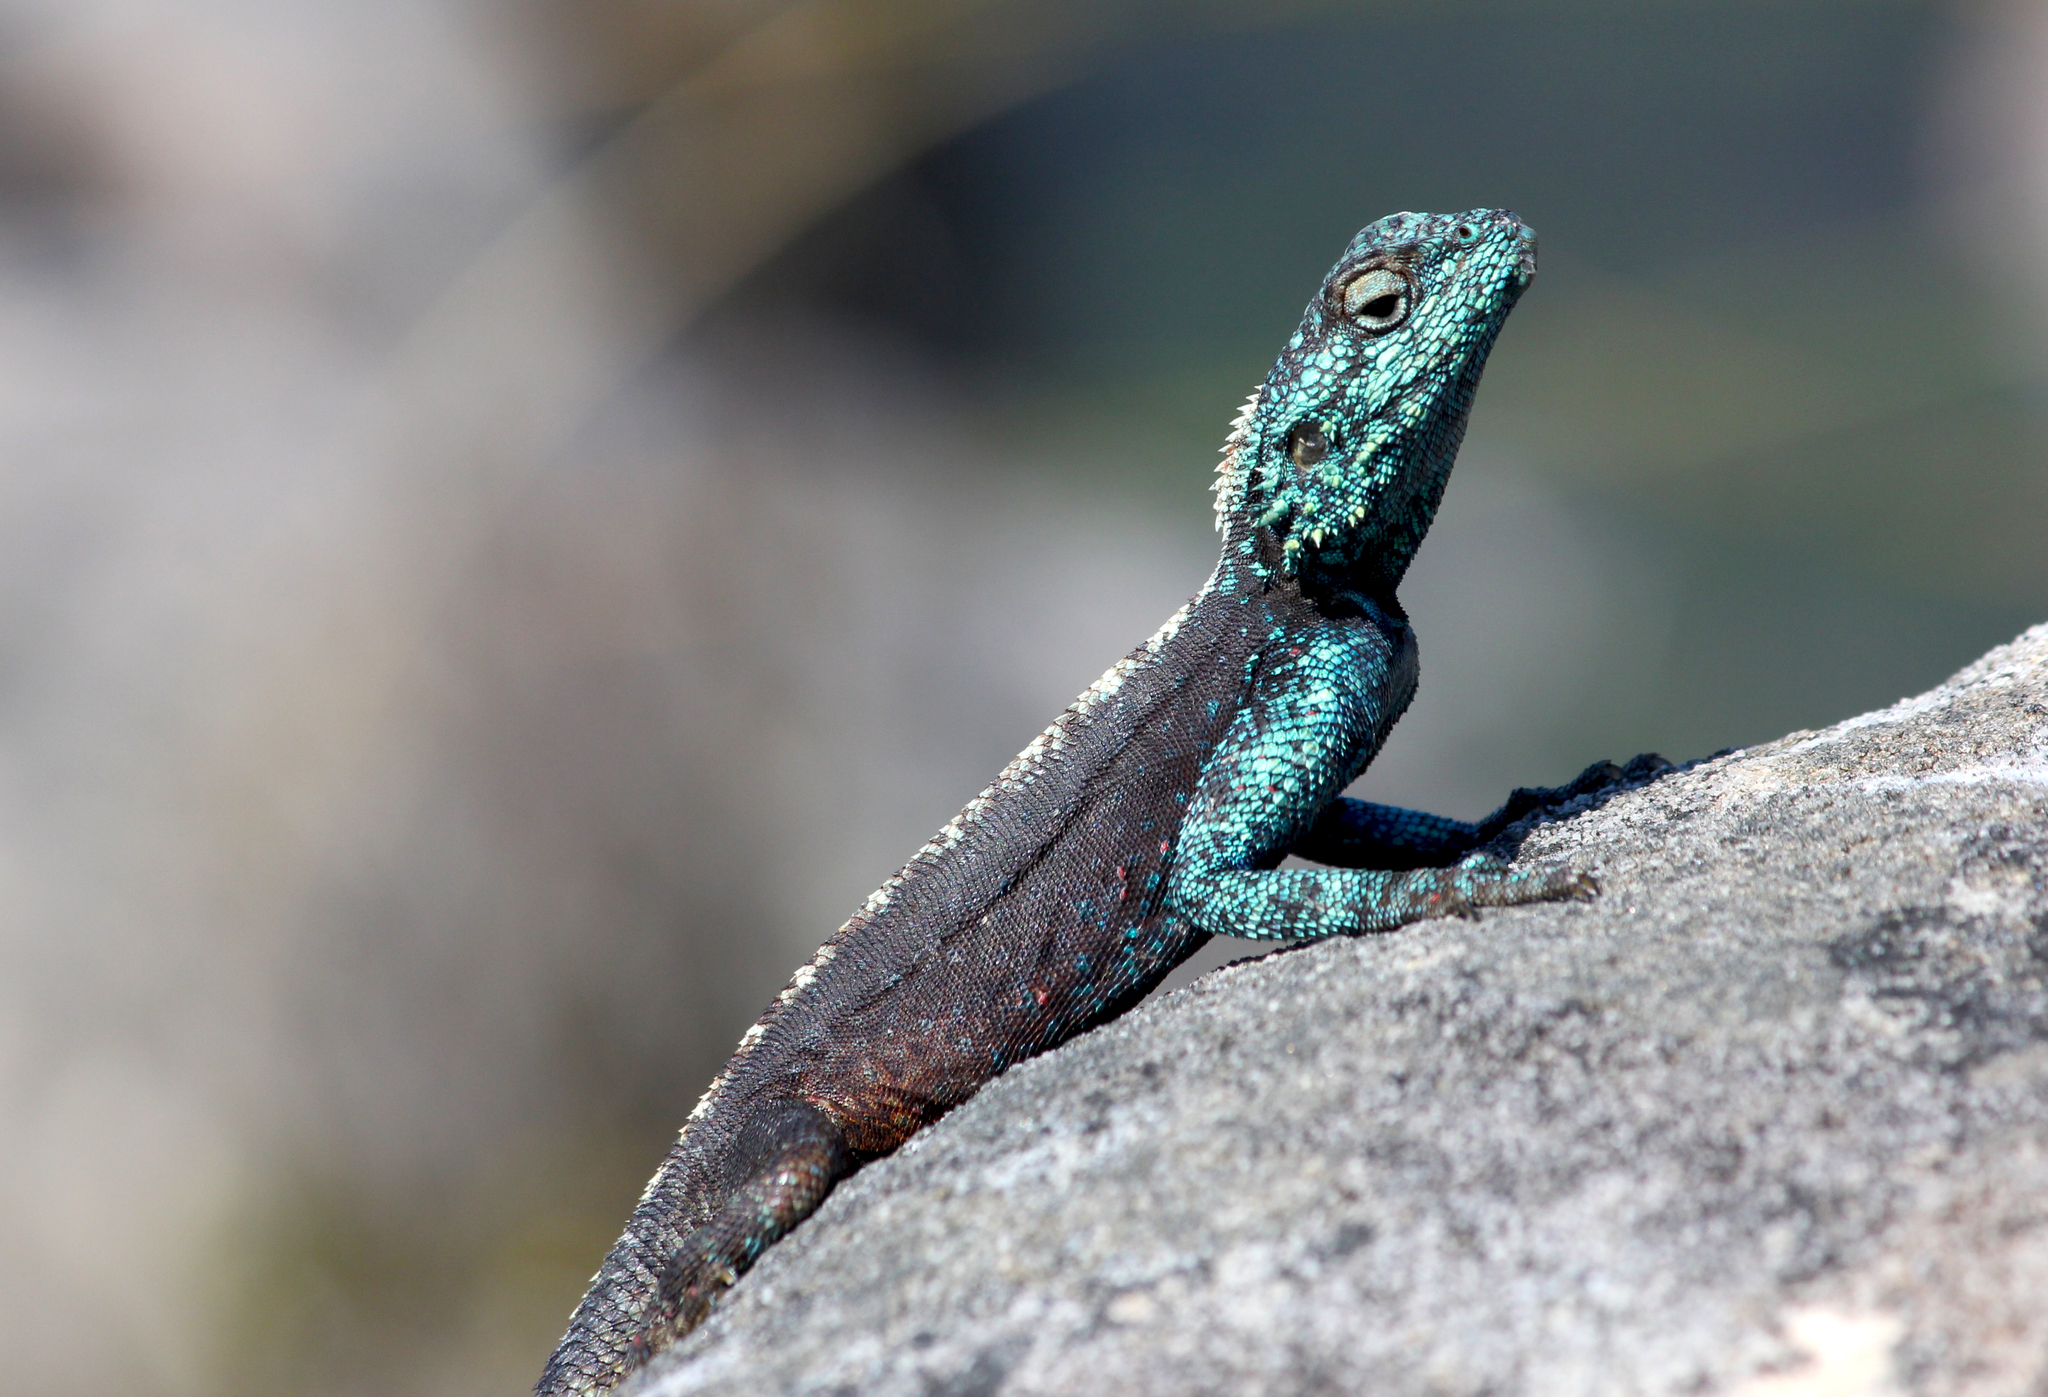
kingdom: Animalia
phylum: Chordata
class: Squamata
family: Agamidae
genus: Agama
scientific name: Agama atra
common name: Southern african rock agama
